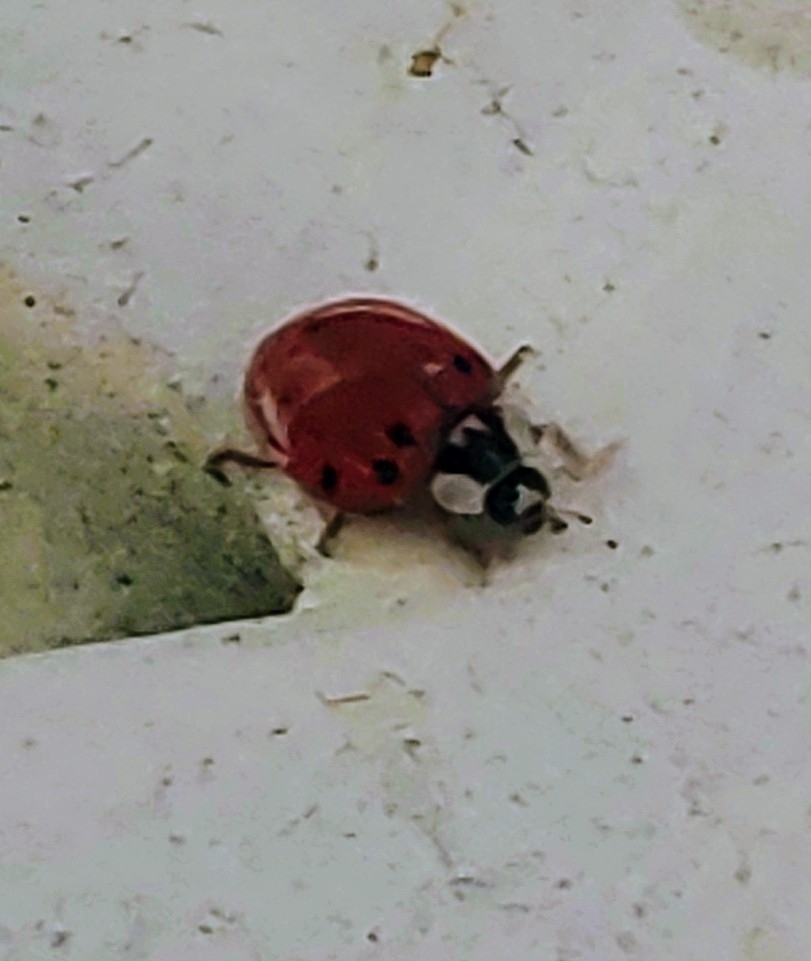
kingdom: Animalia
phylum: Arthropoda
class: Insecta
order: Coleoptera
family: Coccinellidae
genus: Harmonia
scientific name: Harmonia axyridis
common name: Harlequin ladybird
